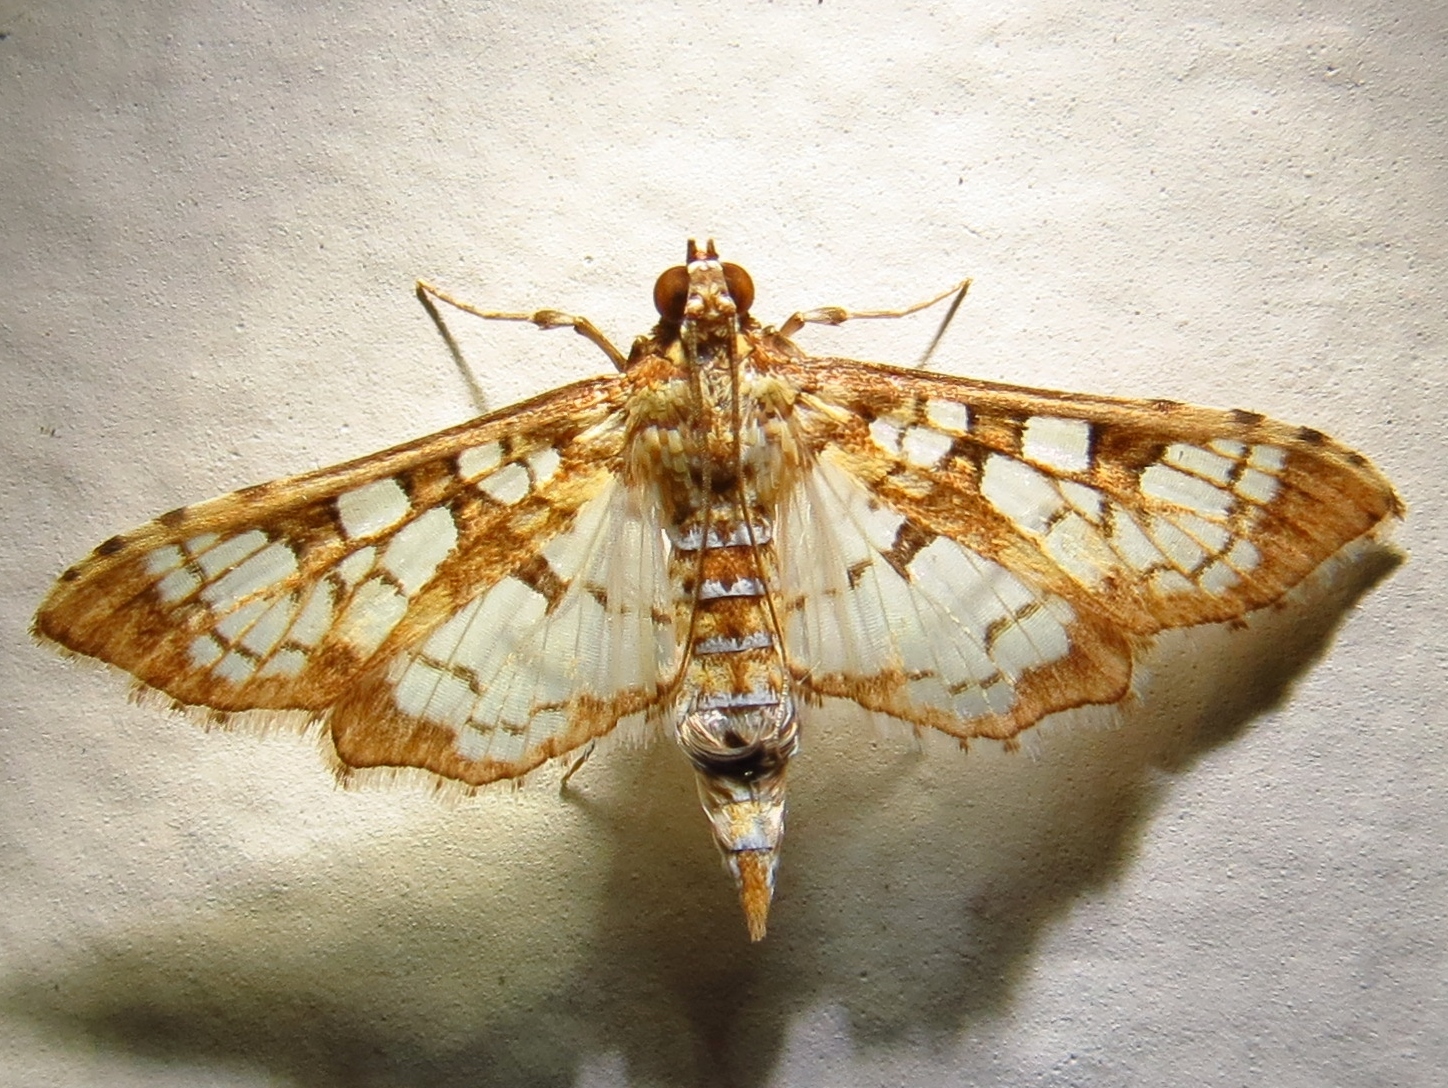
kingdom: Animalia
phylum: Arthropoda
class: Insecta
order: Lepidoptera
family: Crambidae
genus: Samea
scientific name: Samea ecclesialis
